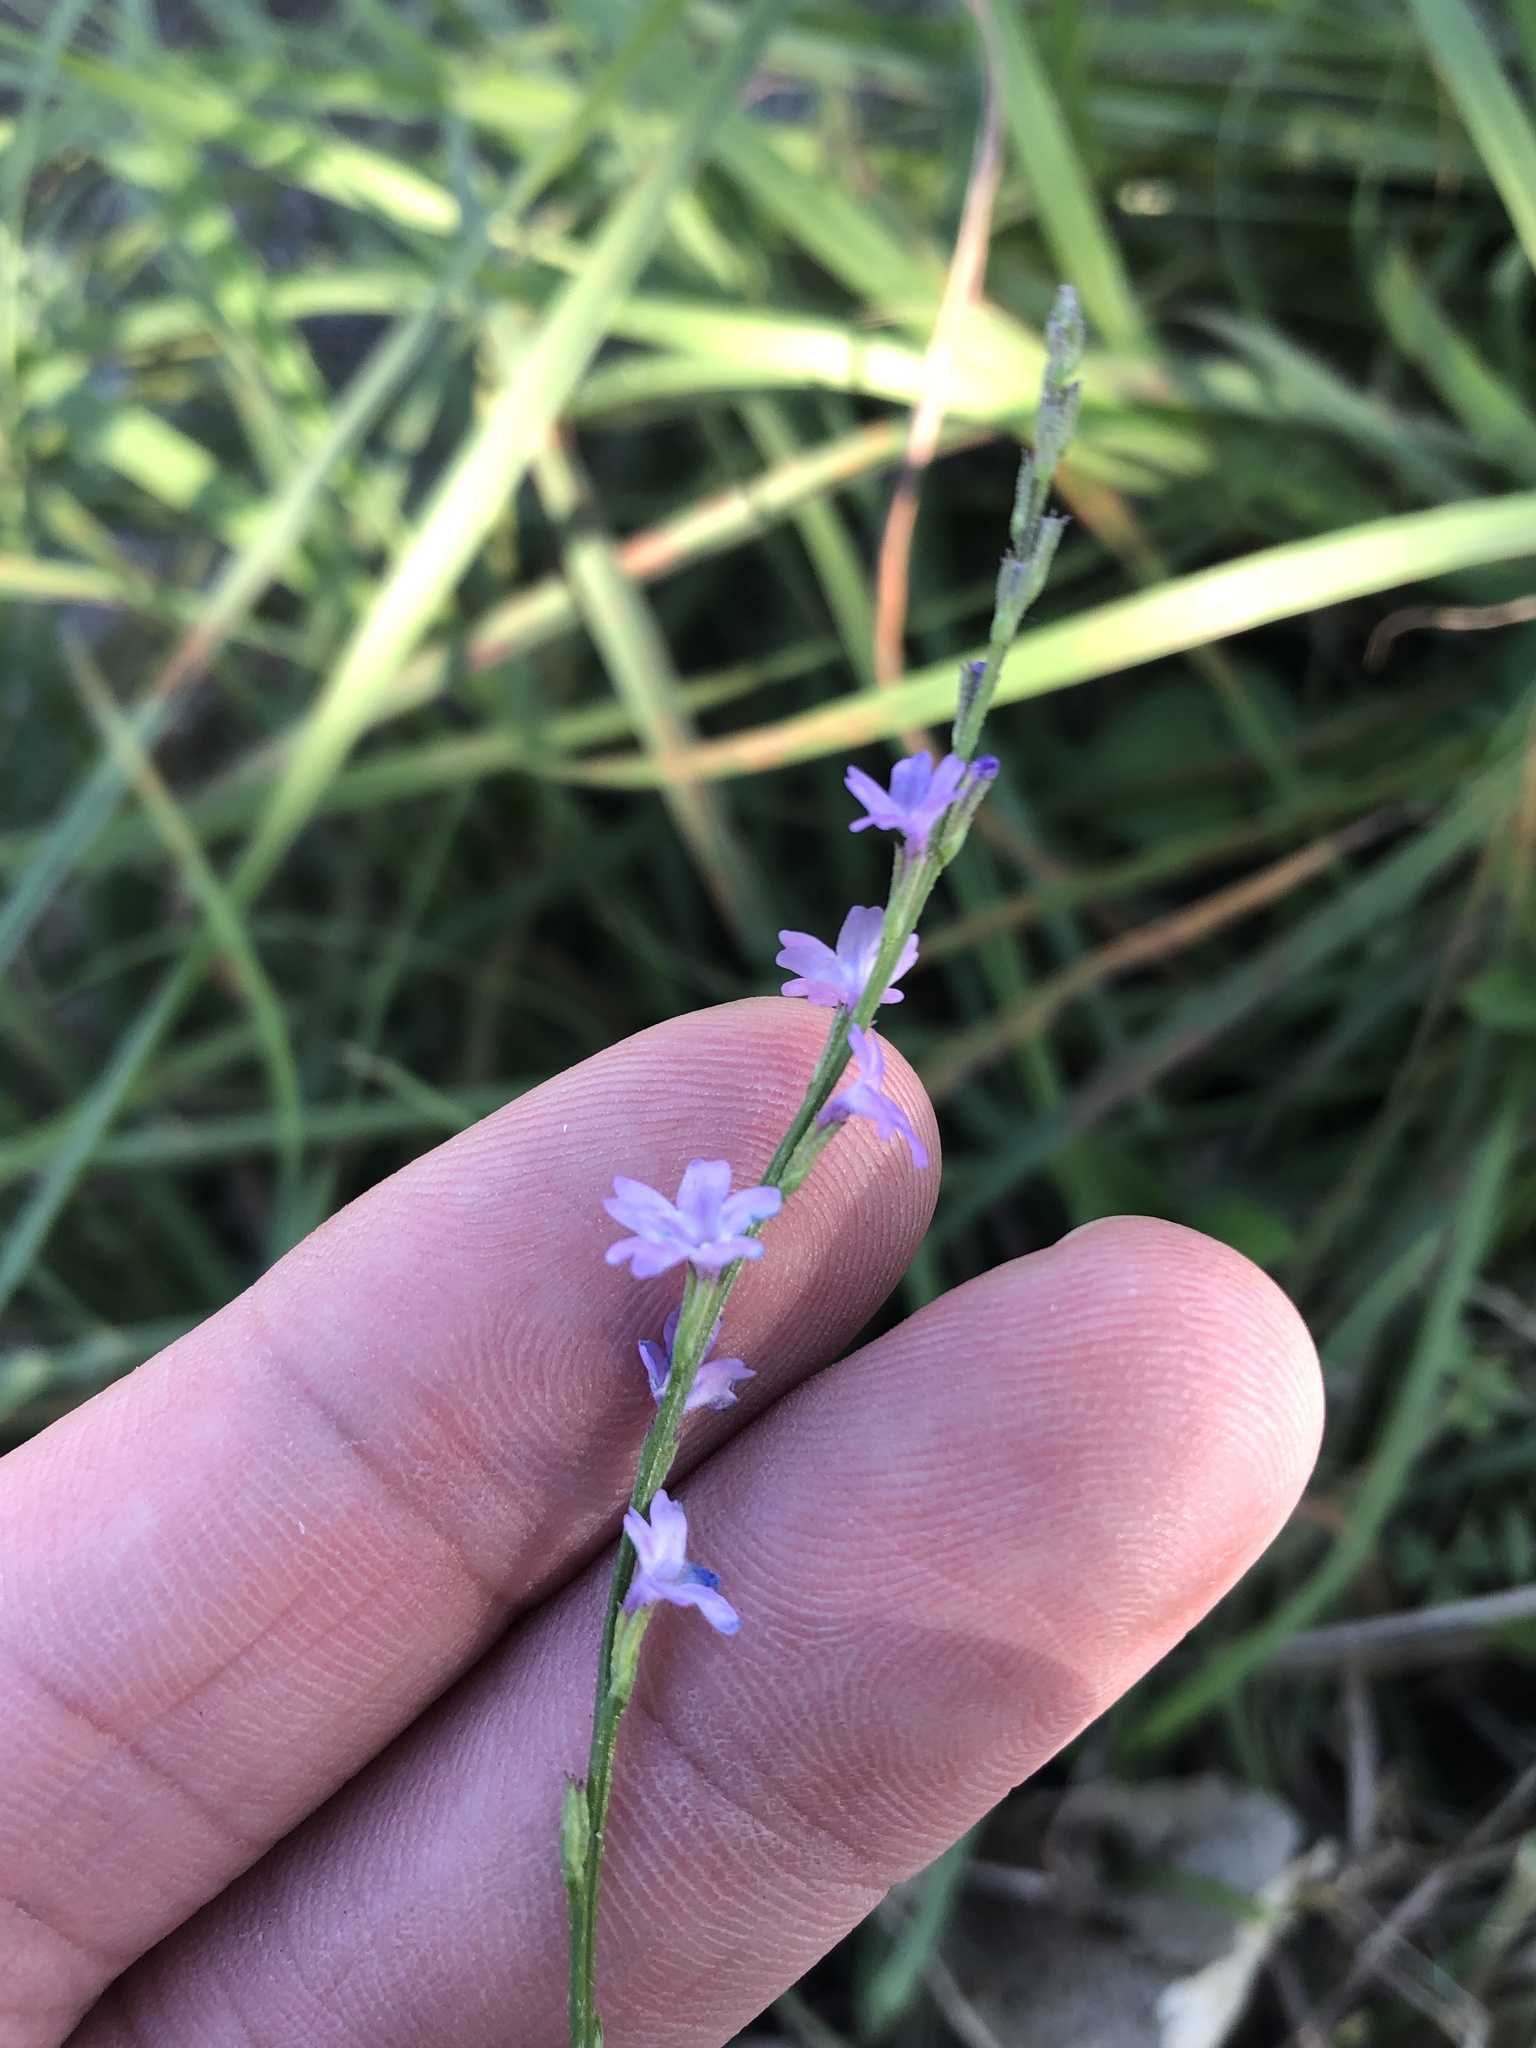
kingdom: Plantae
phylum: Tracheophyta
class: Magnoliopsida
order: Lamiales
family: Verbenaceae
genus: Verbena
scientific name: Verbena halei
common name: Texas vervain
